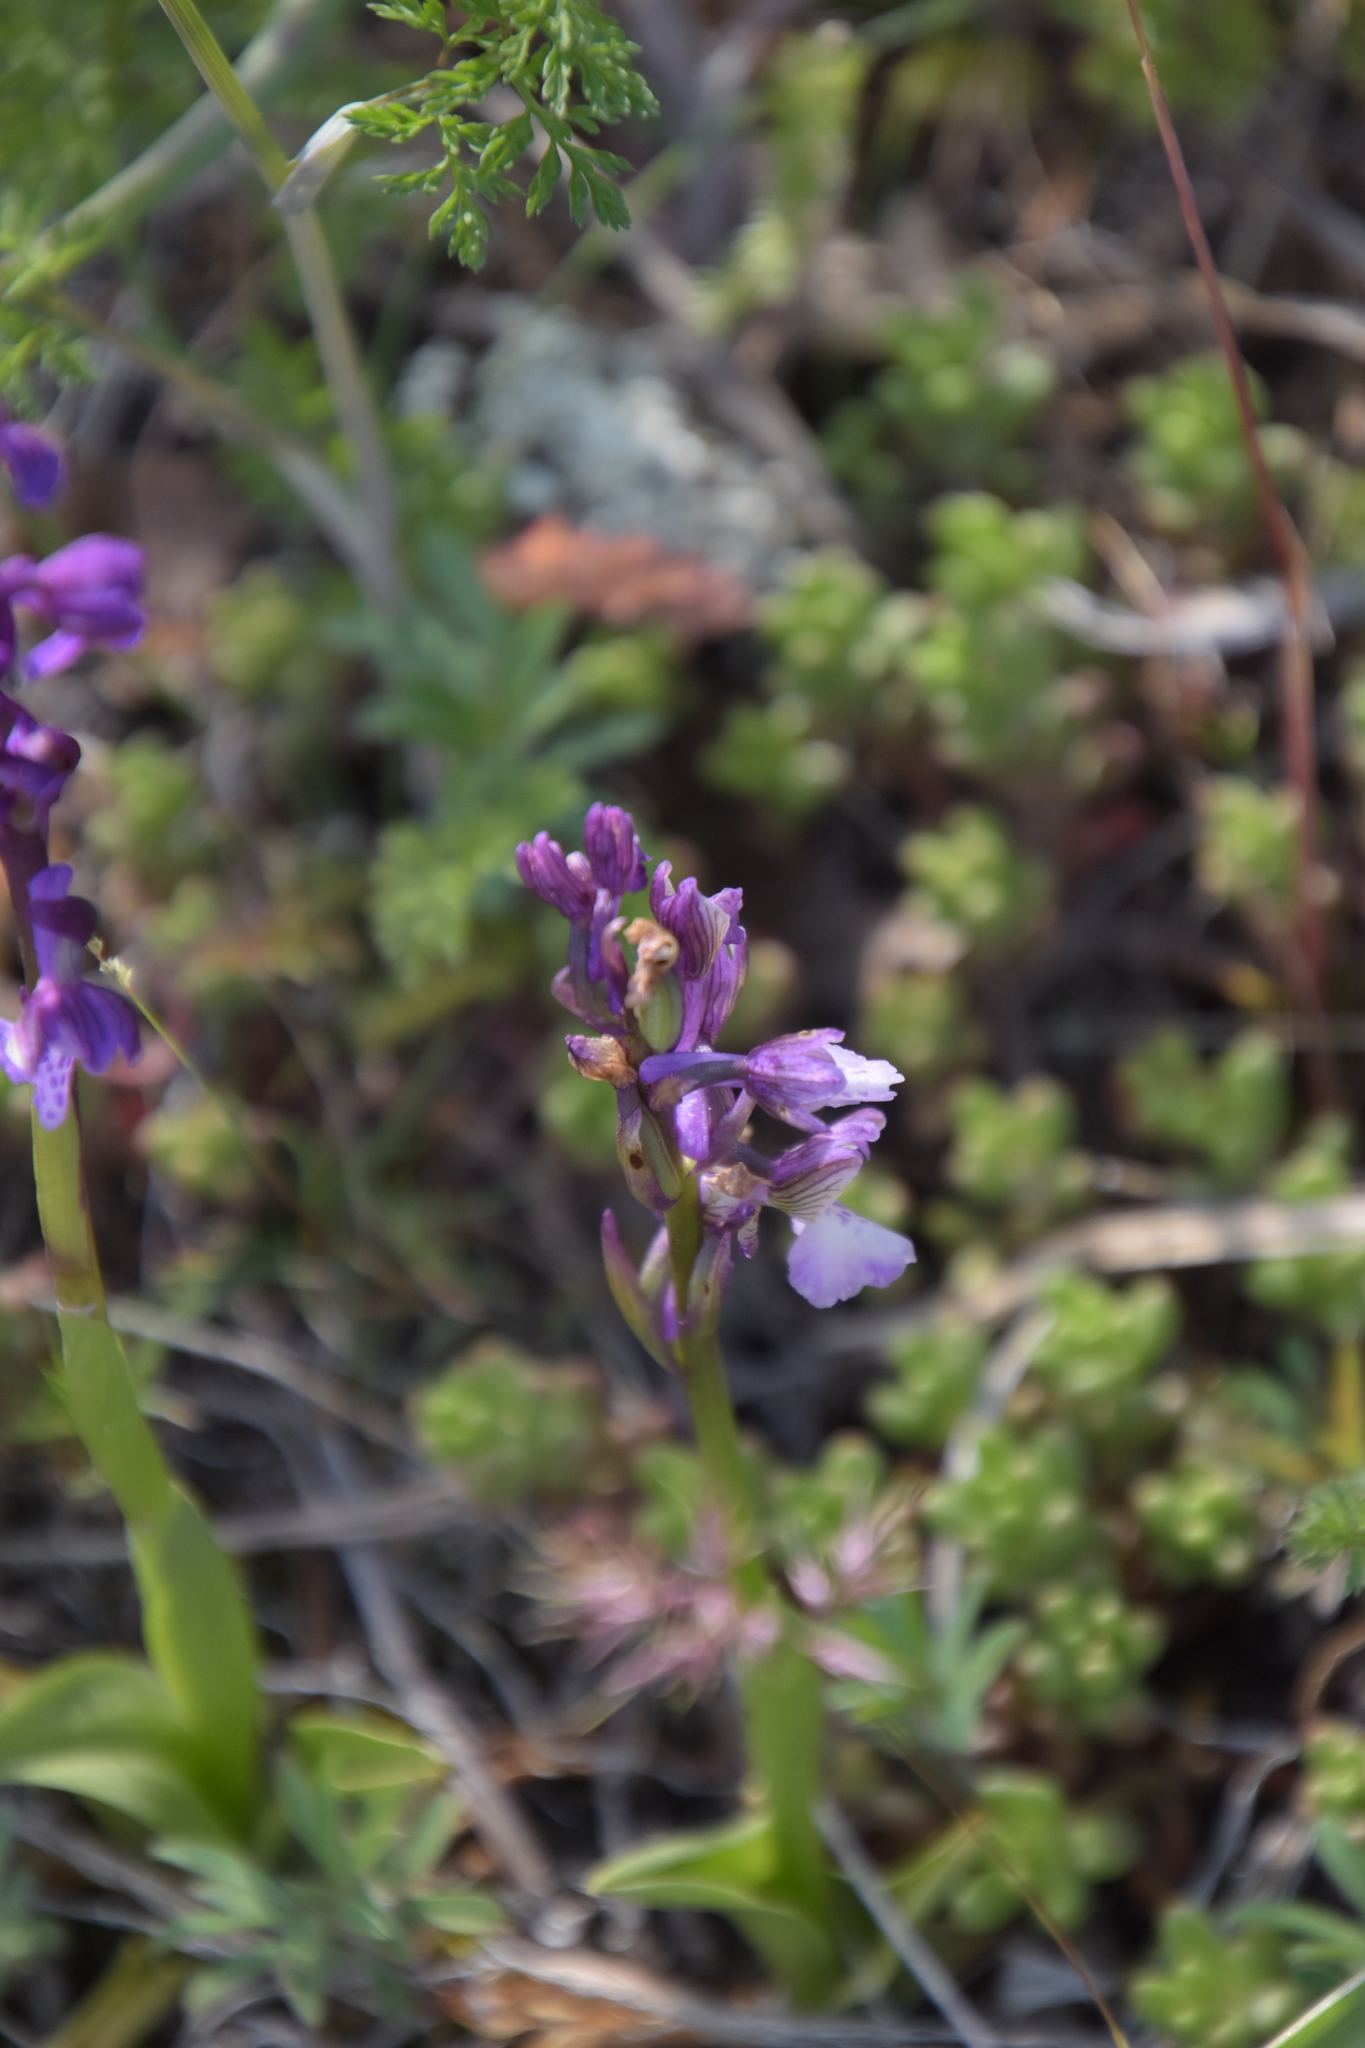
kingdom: Plantae
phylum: Tracheophyta
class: Liliopsida
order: Asparagales
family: Orchidaceae
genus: Anacamptis
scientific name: Anacamptis morio
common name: Green-winged orchid
